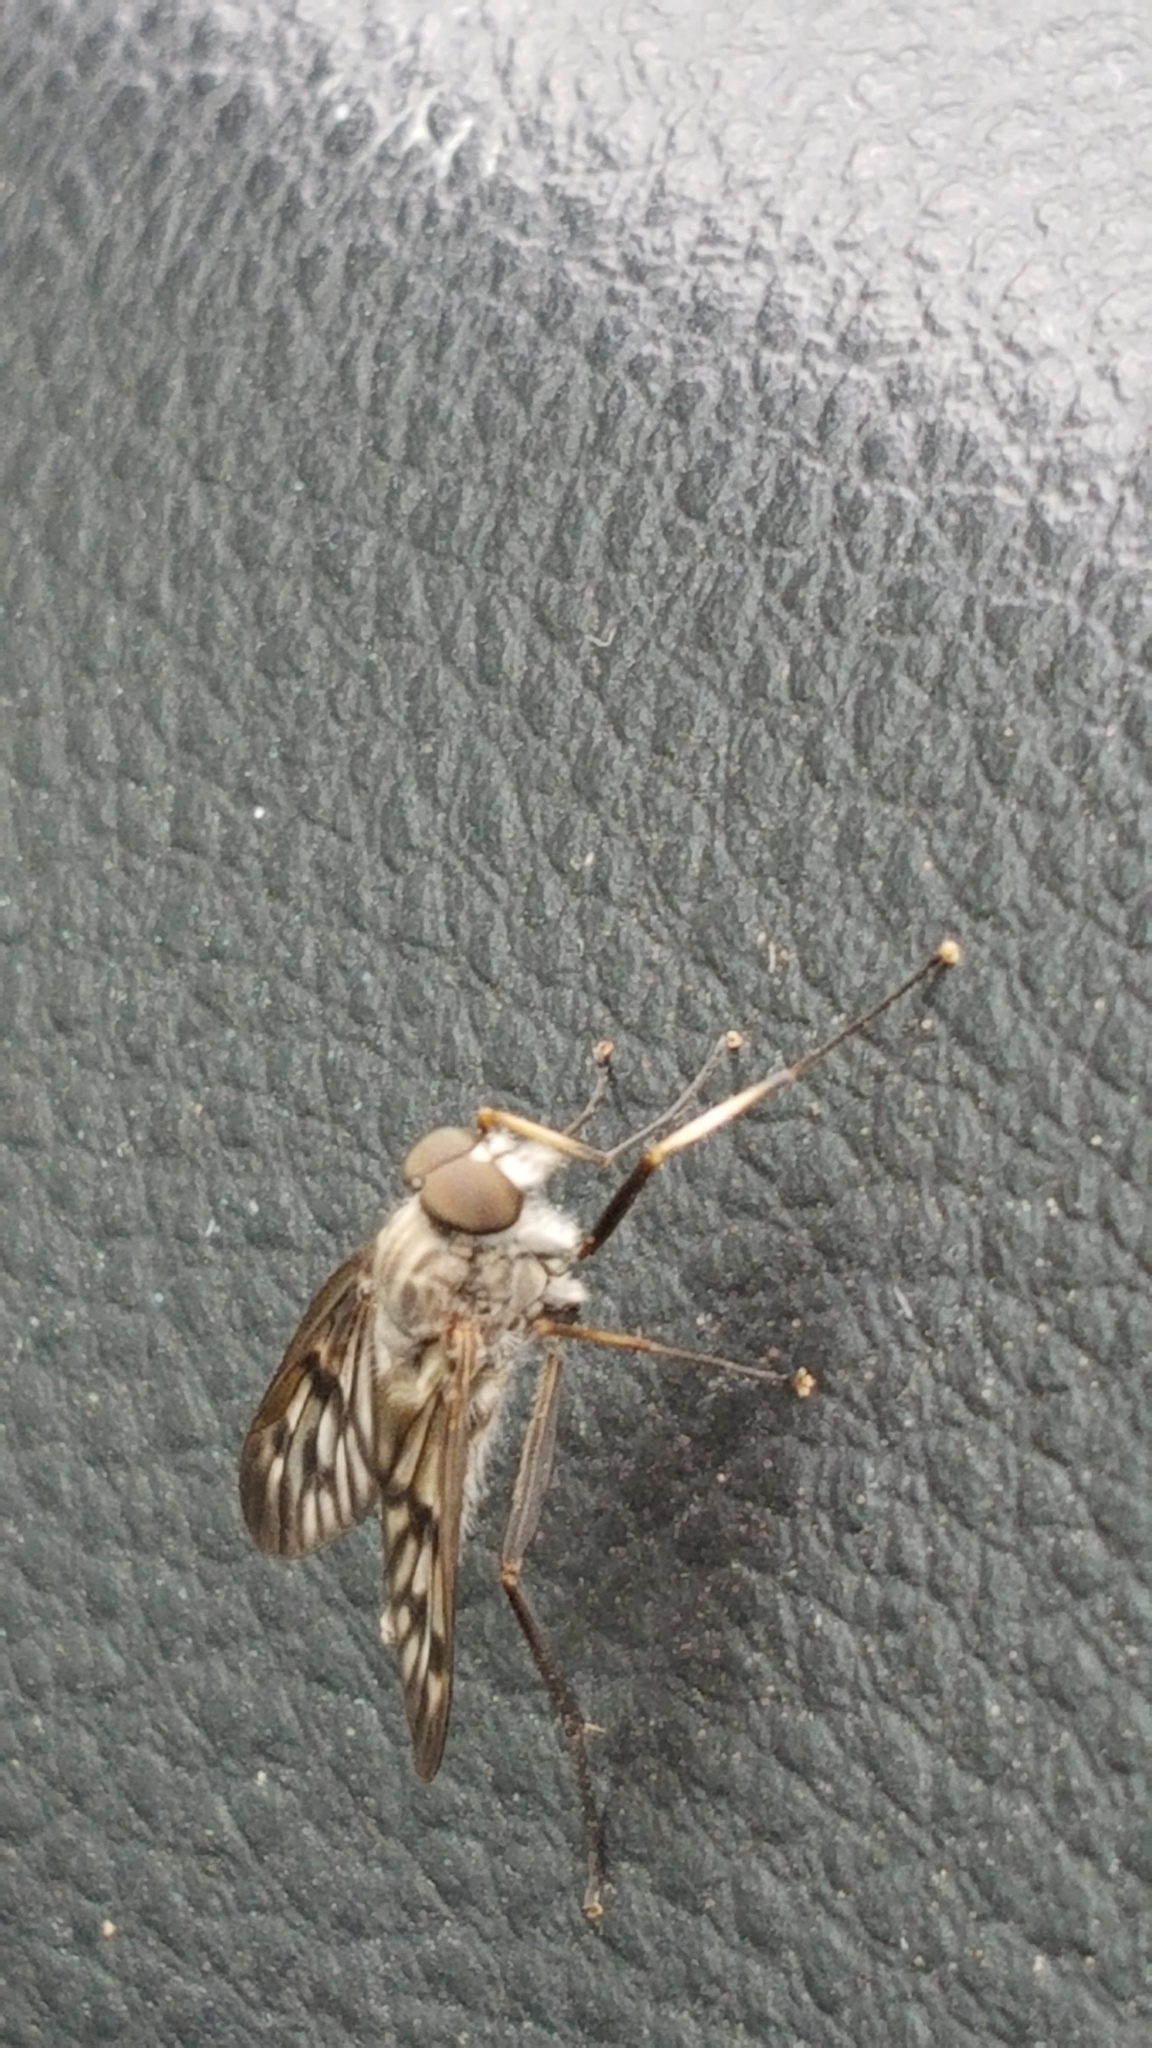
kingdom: Animalia
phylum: Arthropoda
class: Insecta
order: Diptera
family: Rhagionidae
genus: Rhagio
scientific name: Rhagio mystaceus
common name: Common snipe fly
